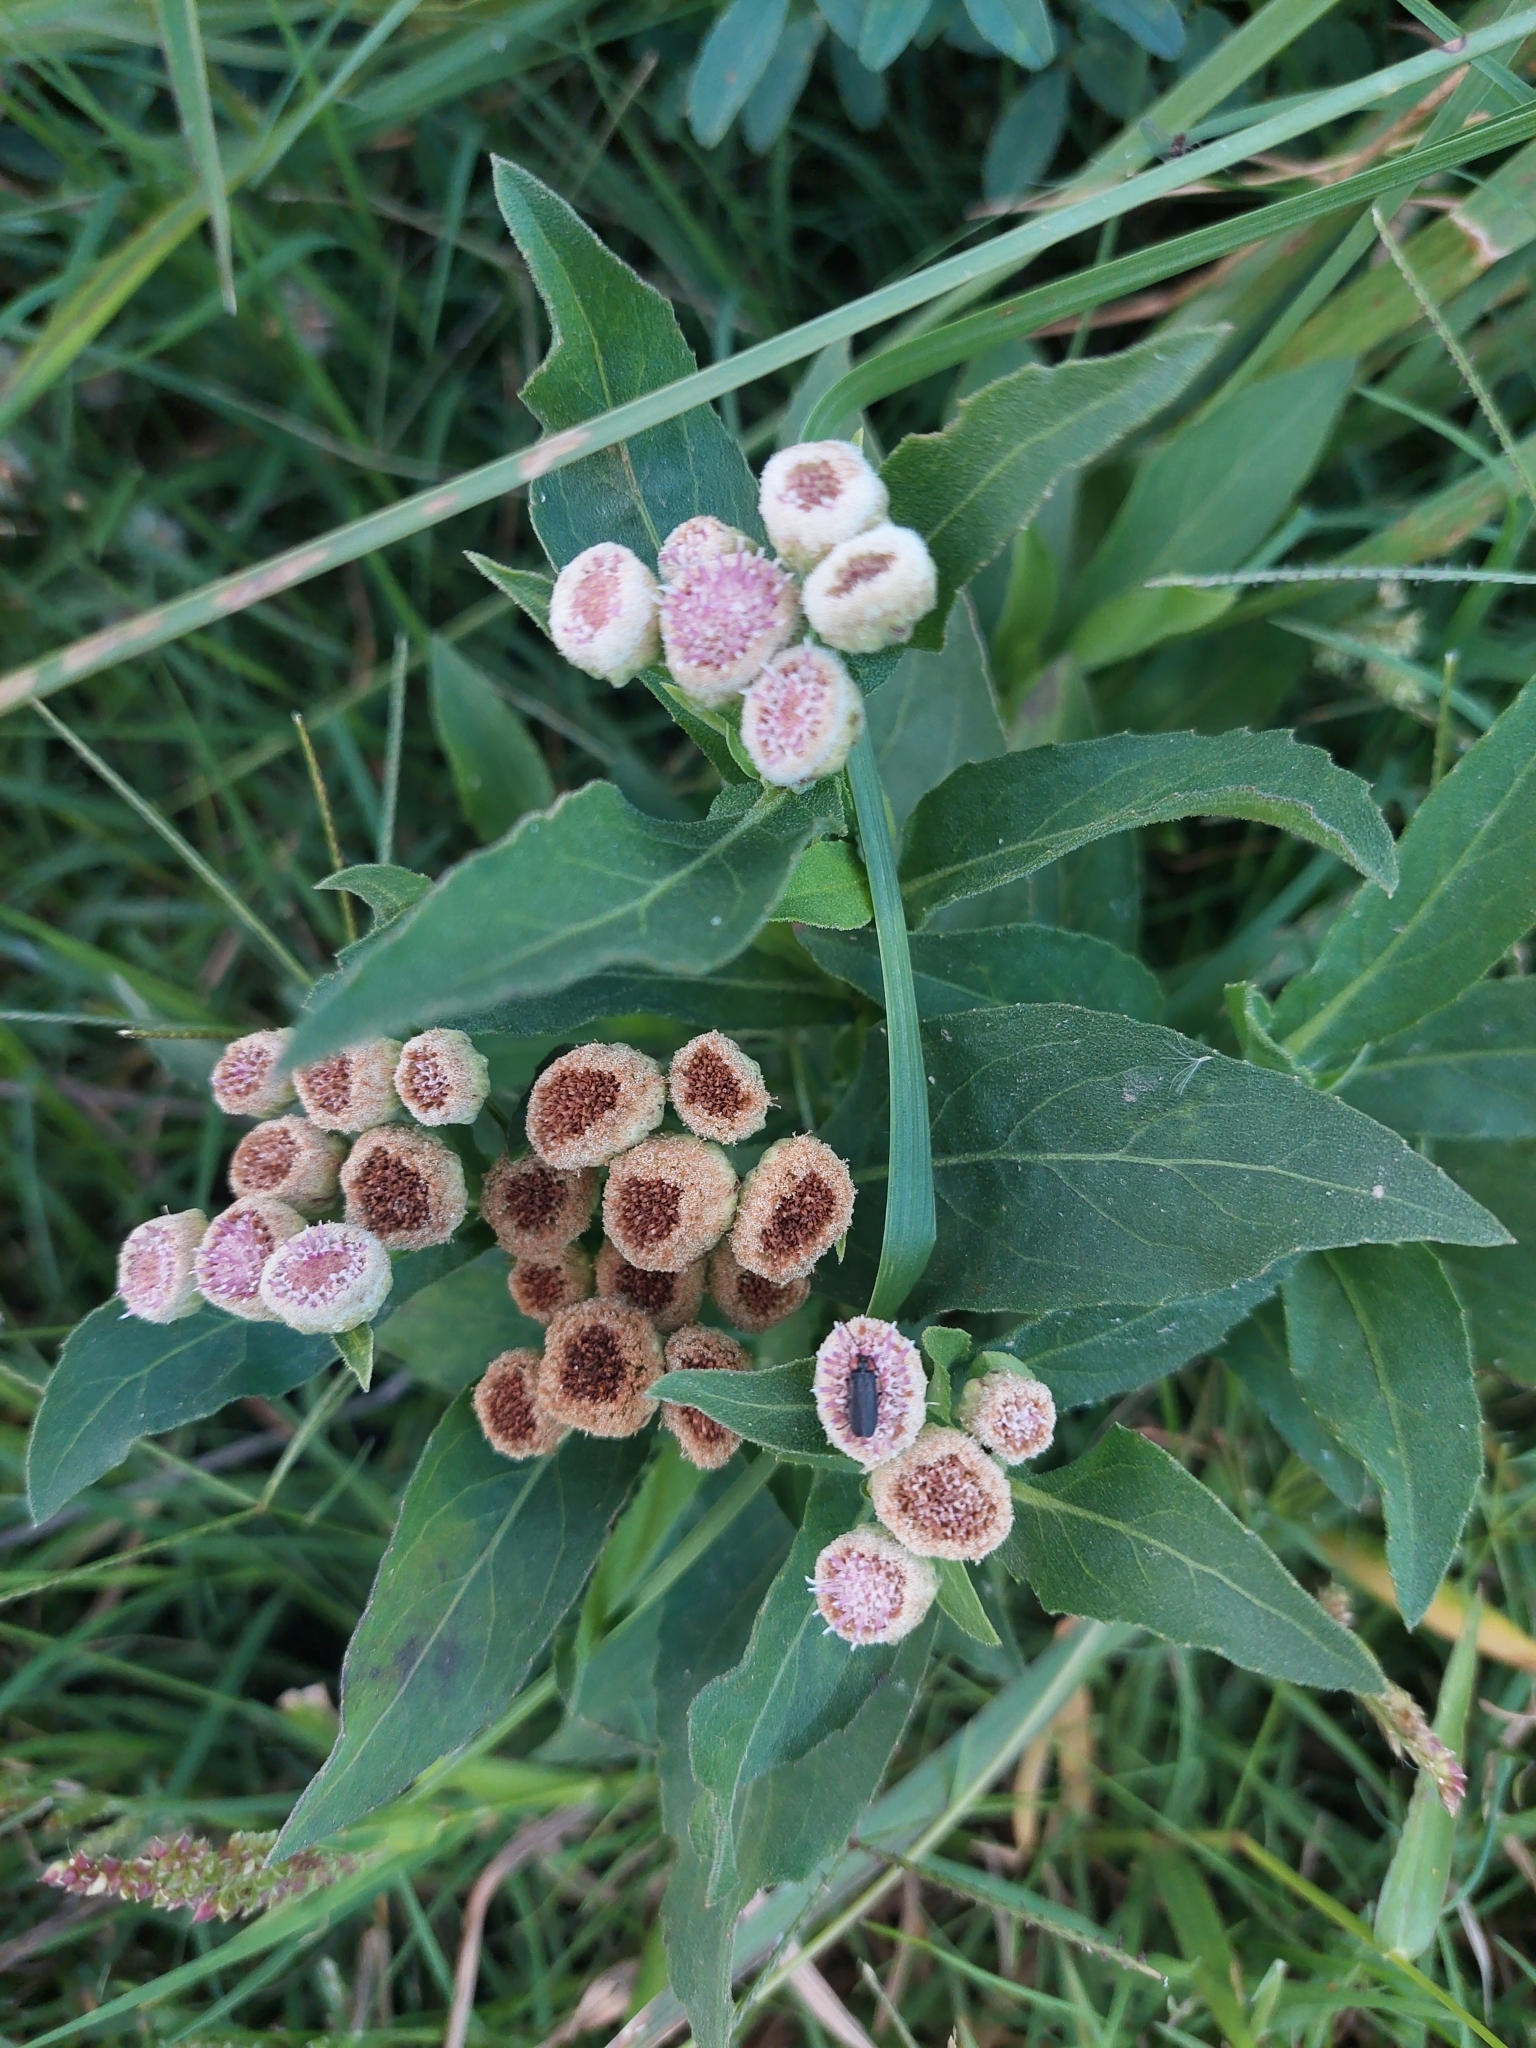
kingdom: Plantae
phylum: Tracheophyta
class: Magnoliopsida
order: Asterales
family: Asteraceae
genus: Pluchea
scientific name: Pluchea sagittalis
